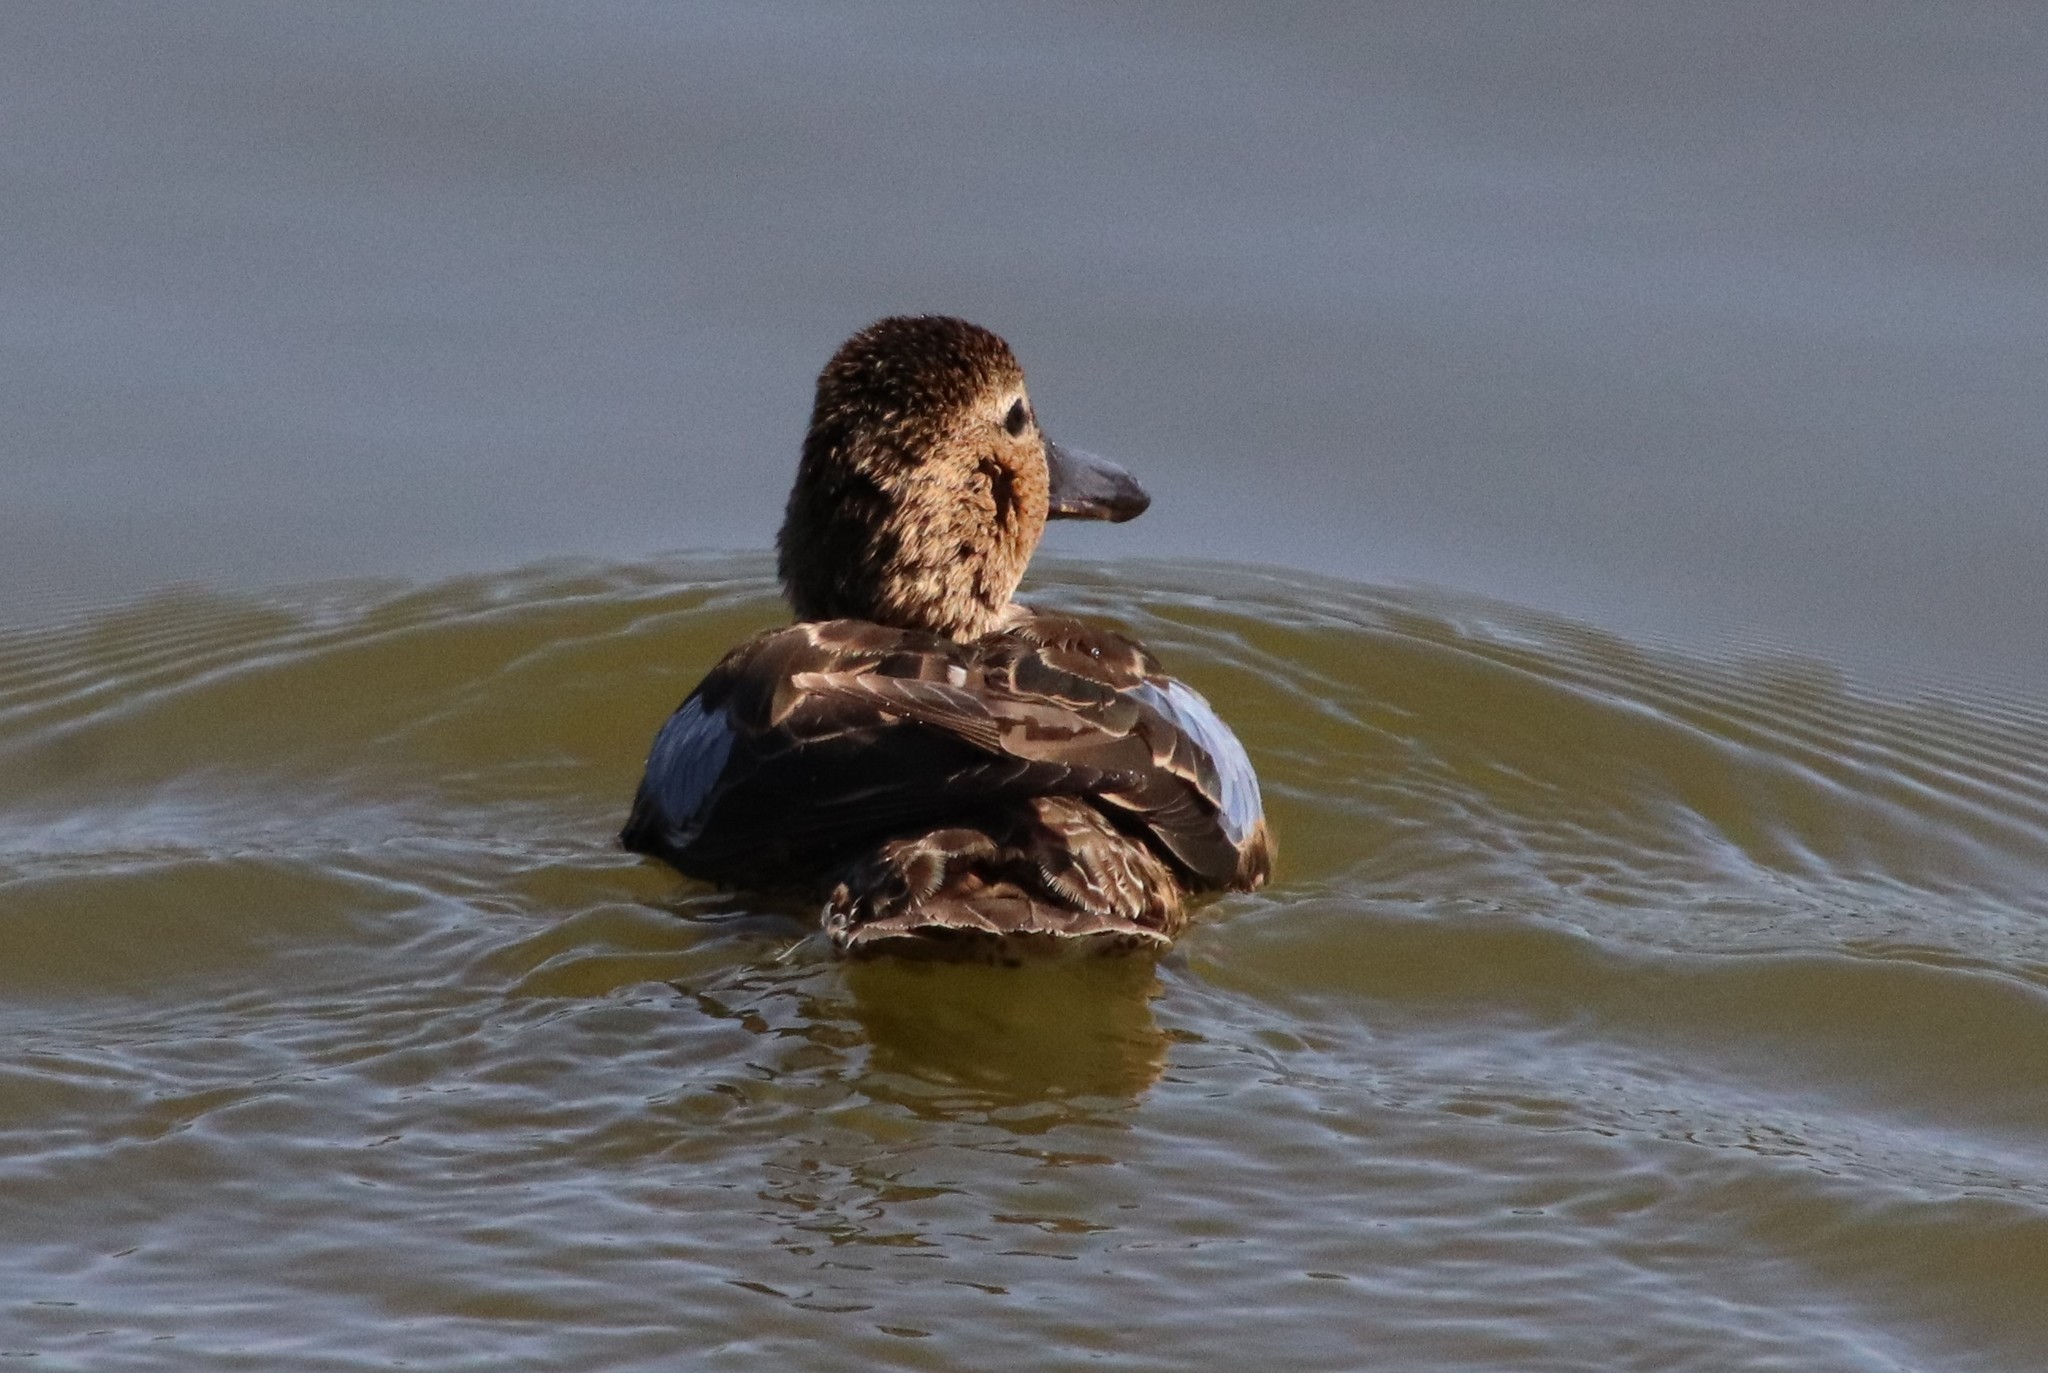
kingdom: Animalia
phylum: Chordata
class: Aves
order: Anseriformes
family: Anatidae
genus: Spatula
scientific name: Spatula cyanoptera
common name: Cinnamon teal
